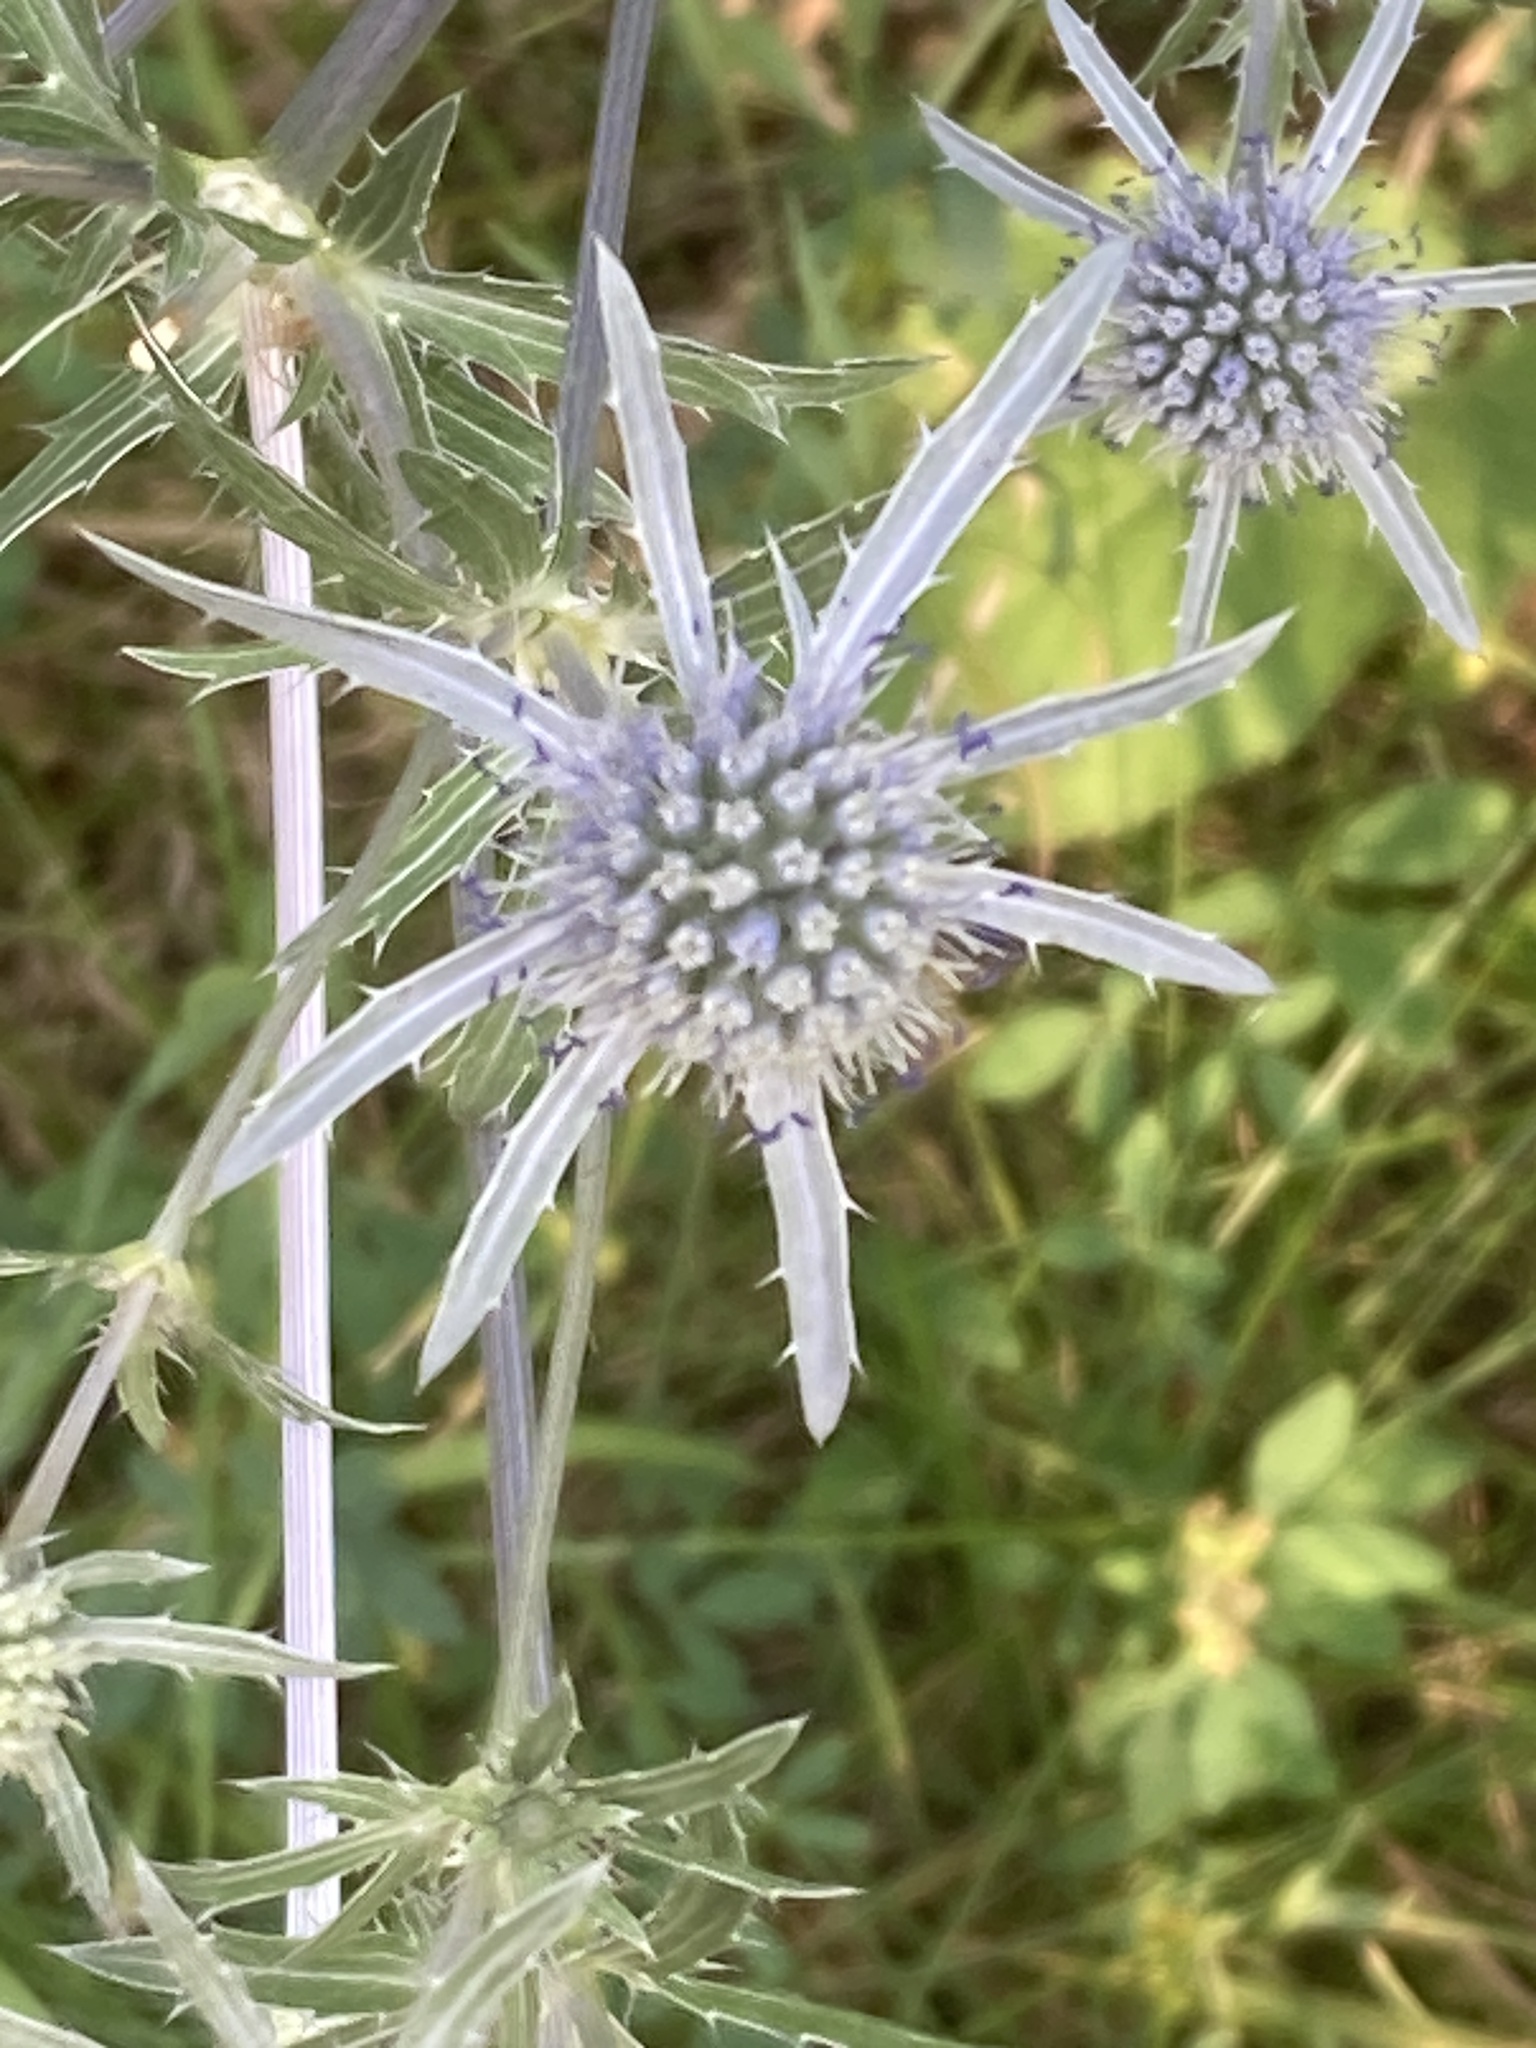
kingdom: Plantae
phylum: Tracheophyta
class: Magnoliopsida
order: Apiales
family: Apiaceae
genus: Eryngium
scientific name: Eryngium planum
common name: Blue eryngo
